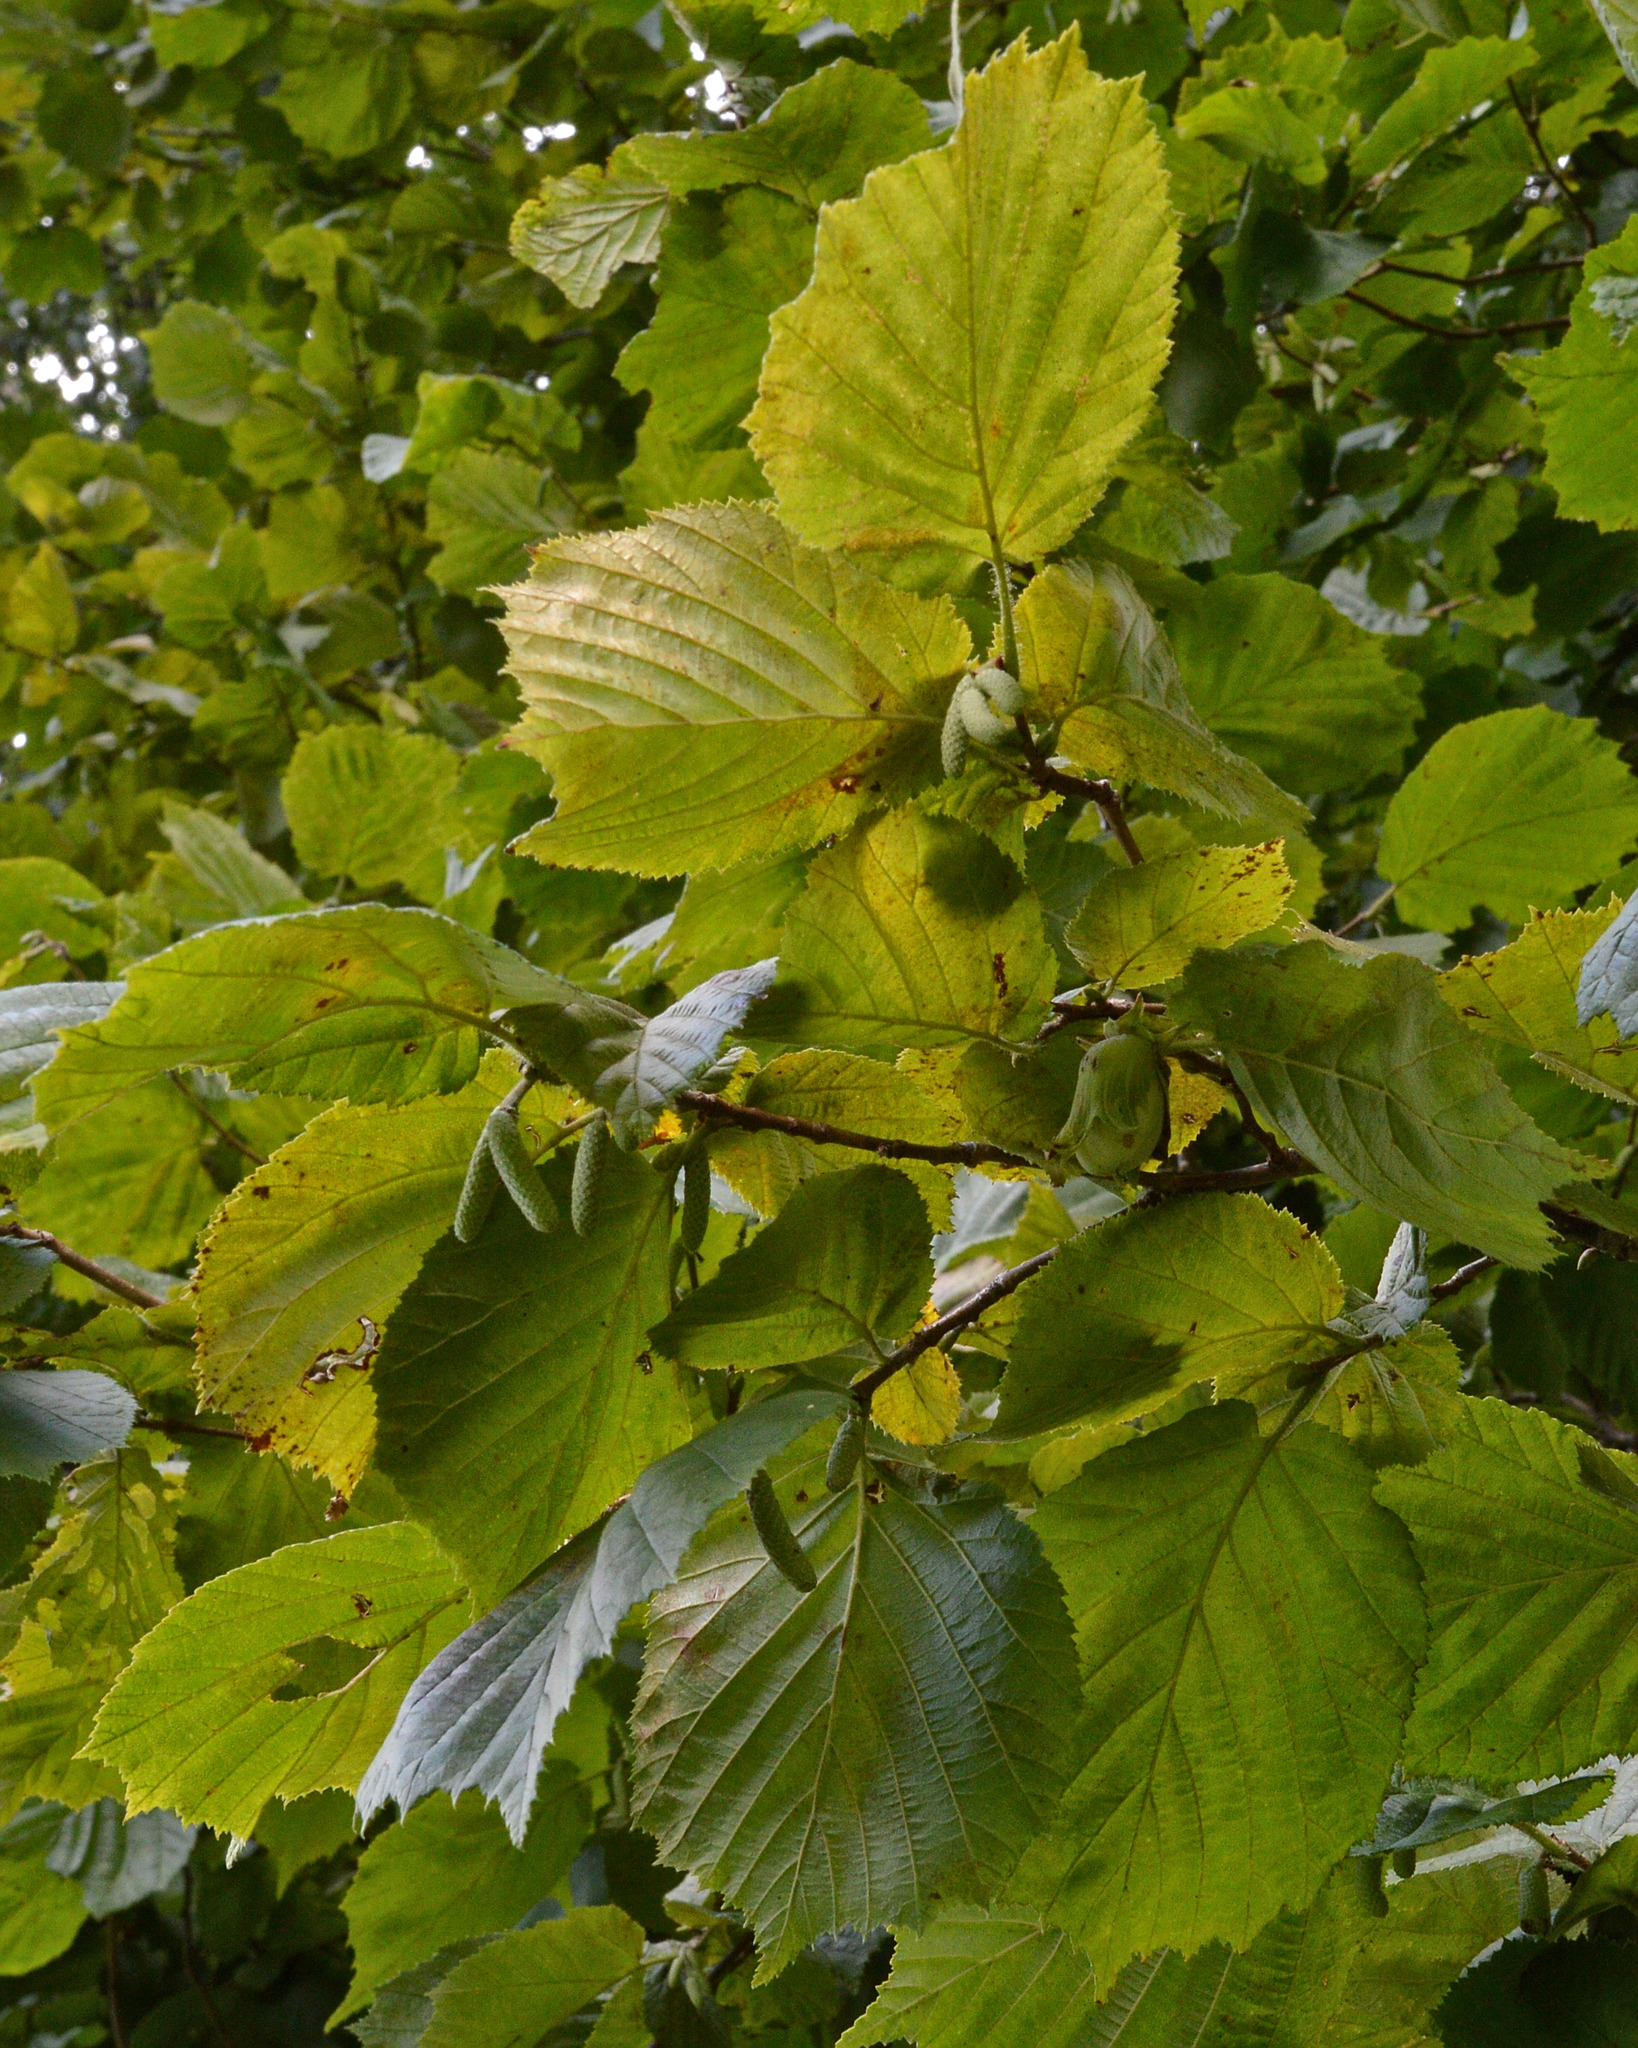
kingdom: Plantae
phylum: Tracheophyta
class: Magnoliopsida
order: Fagales
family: Betulaceae
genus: Corylus
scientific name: Corylus avellana
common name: European hazel
